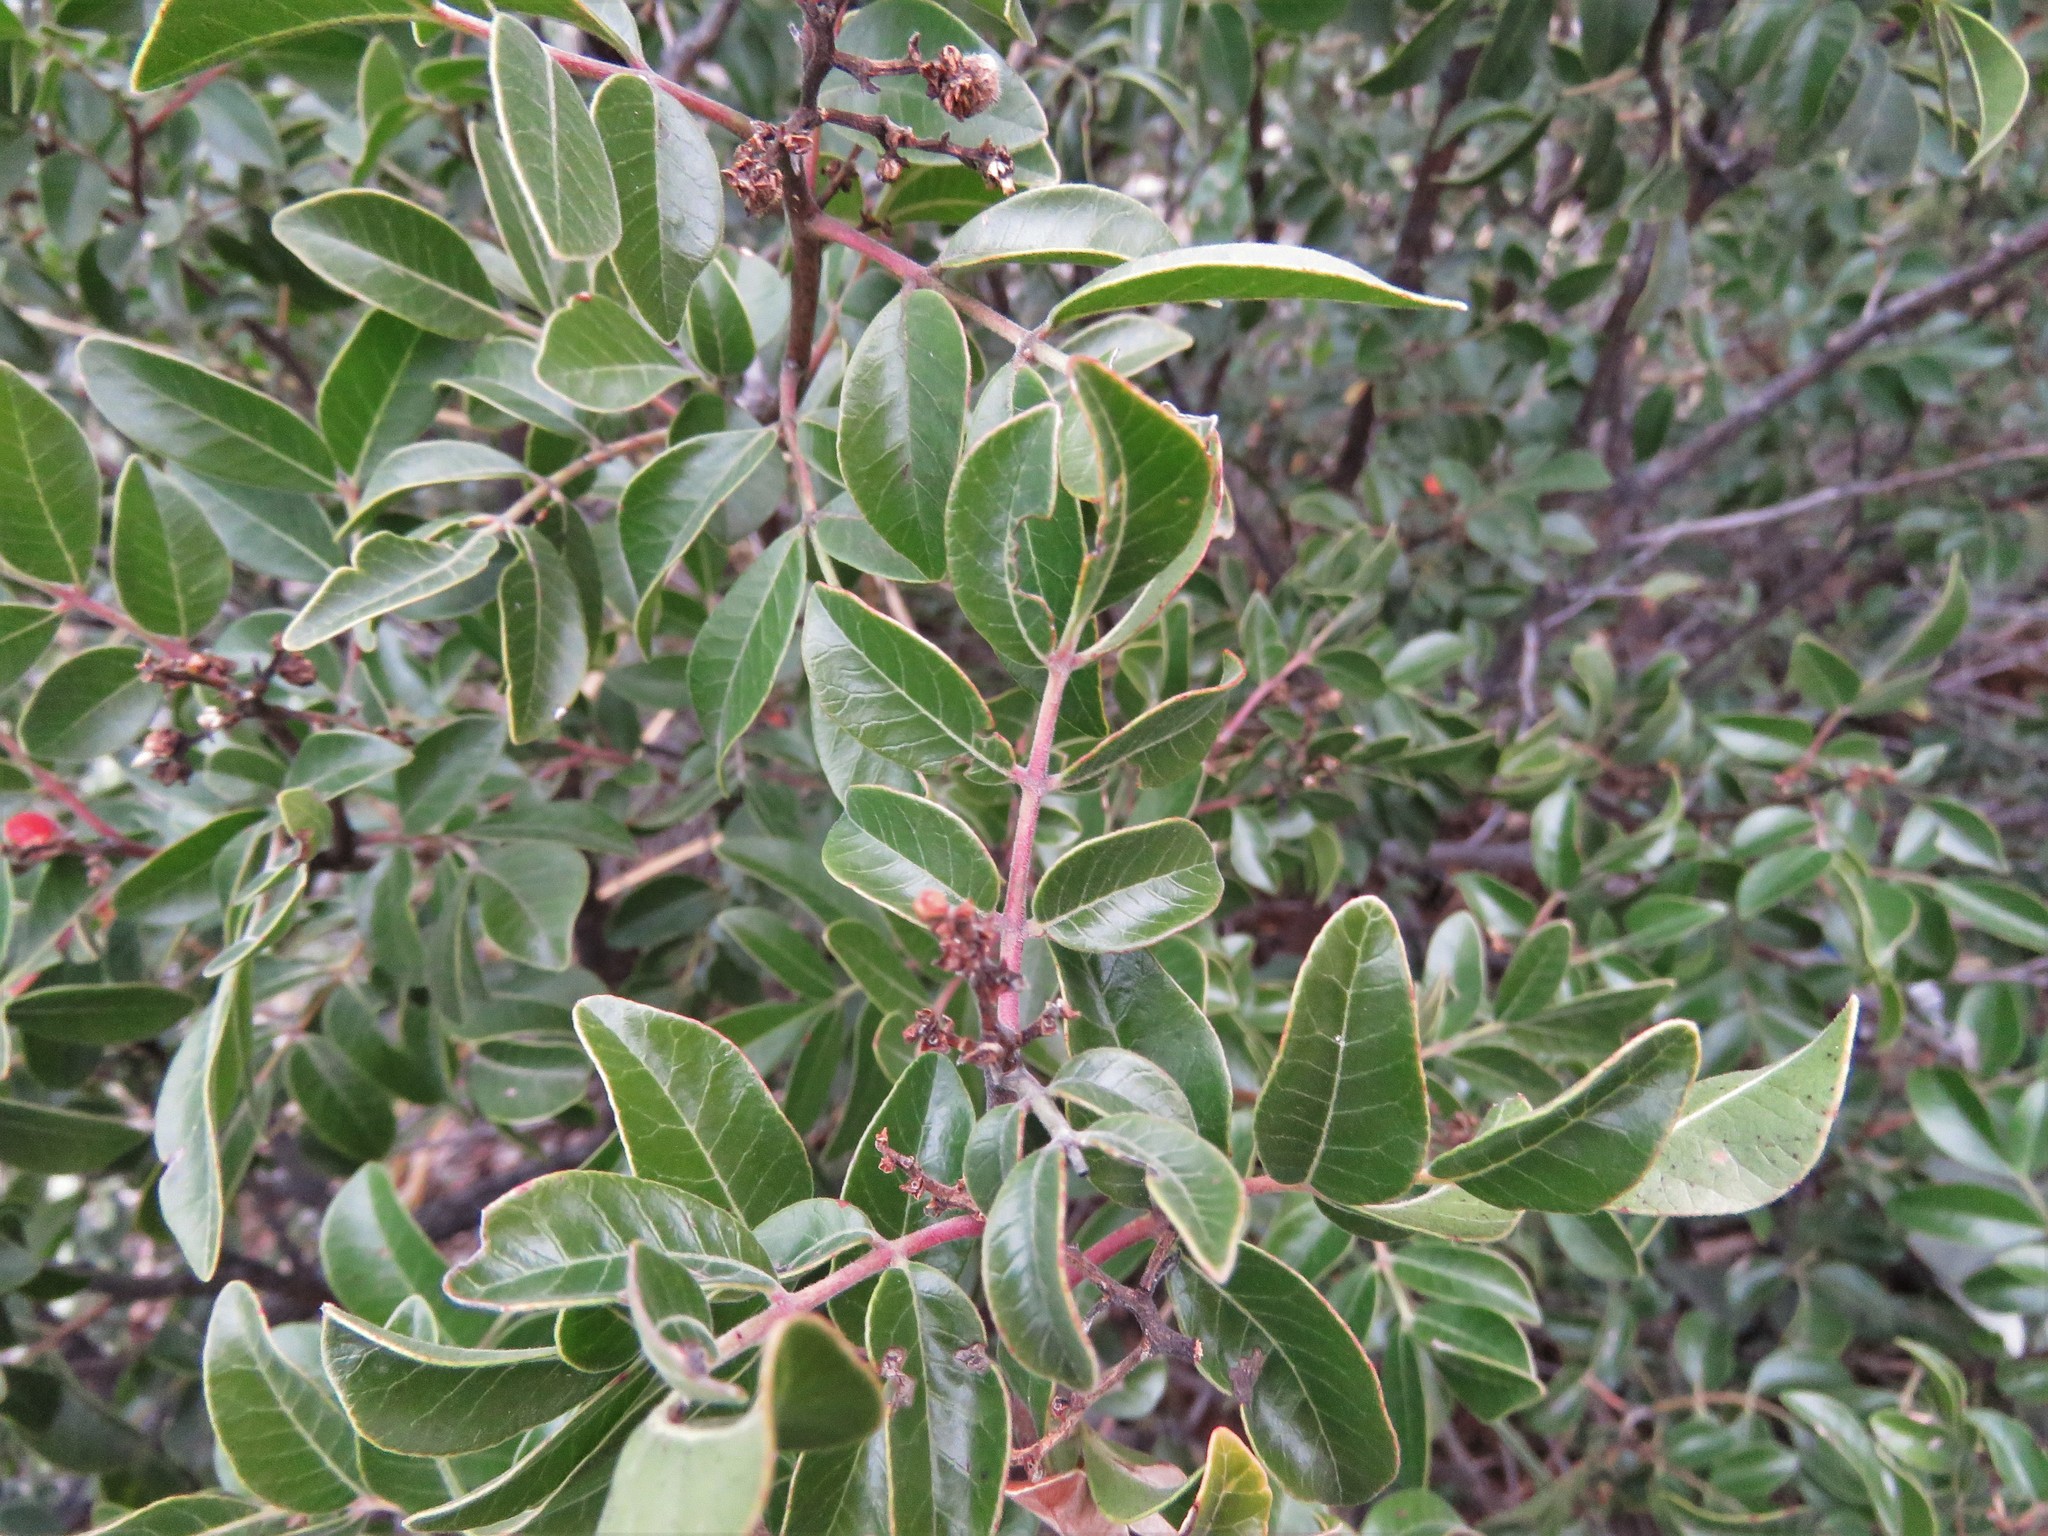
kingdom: Plantae
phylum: Tracheophyta
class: Magnoliopsida
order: Sapindales
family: Anacardiaceae
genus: Rhus
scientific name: Rhus virens
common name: Evergreen sumac
